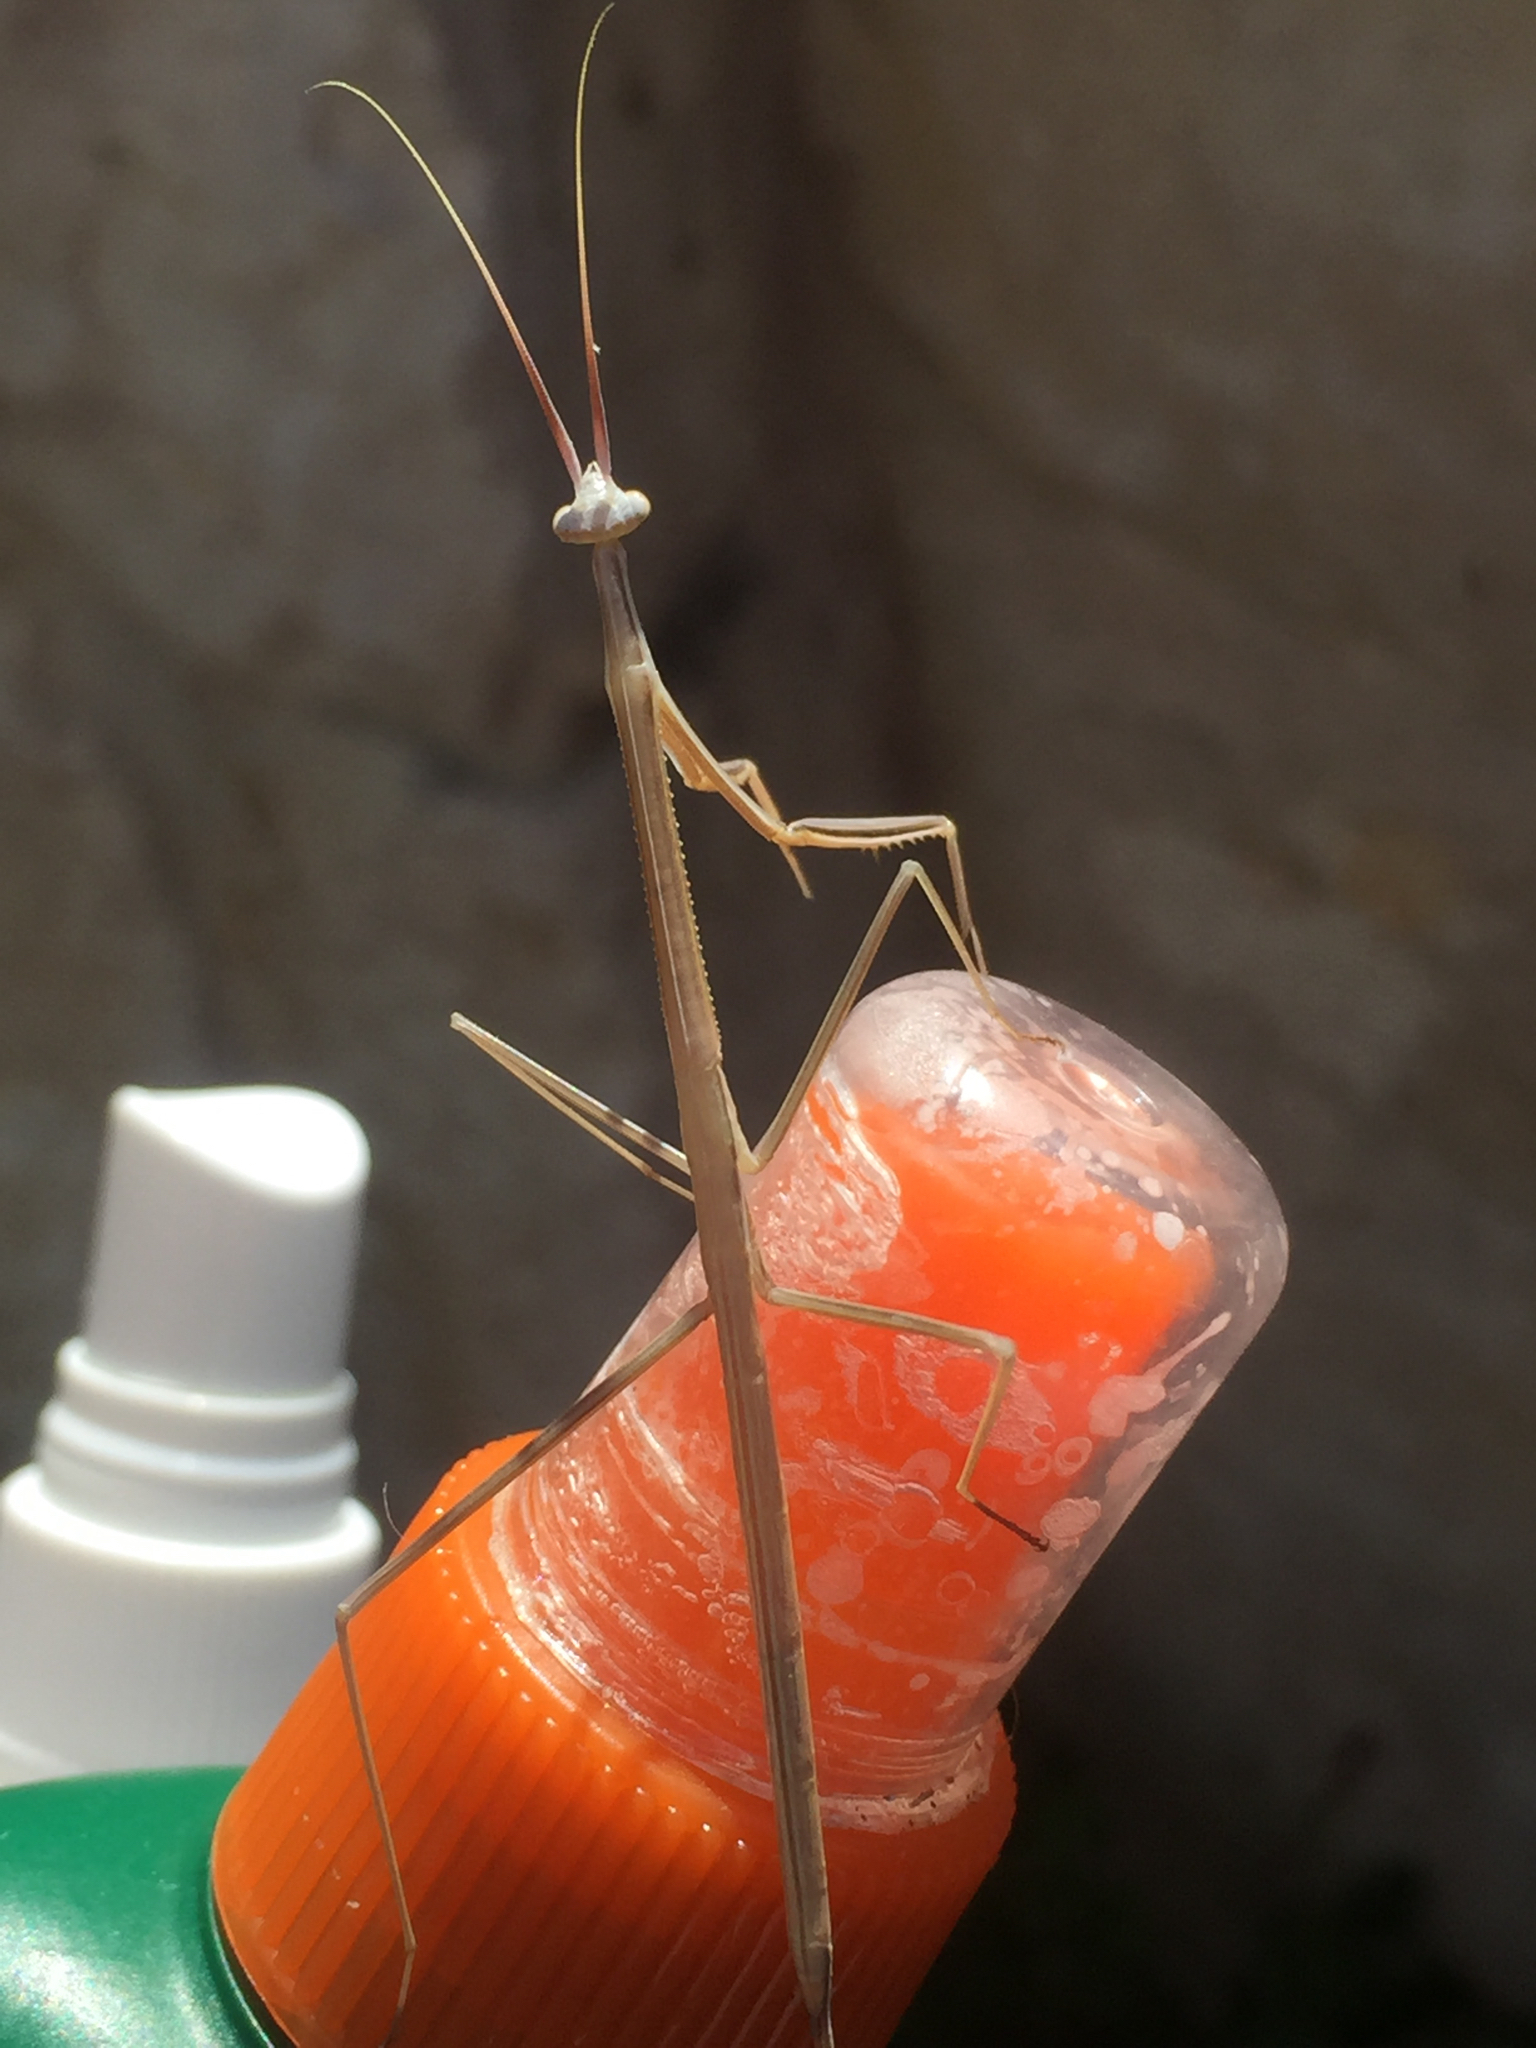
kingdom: Animalia
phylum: Arthropoda
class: Insecta
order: Mantodea
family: Coptopterygidae
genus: Brunneria
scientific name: Brunneria borealis
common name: Mantis
